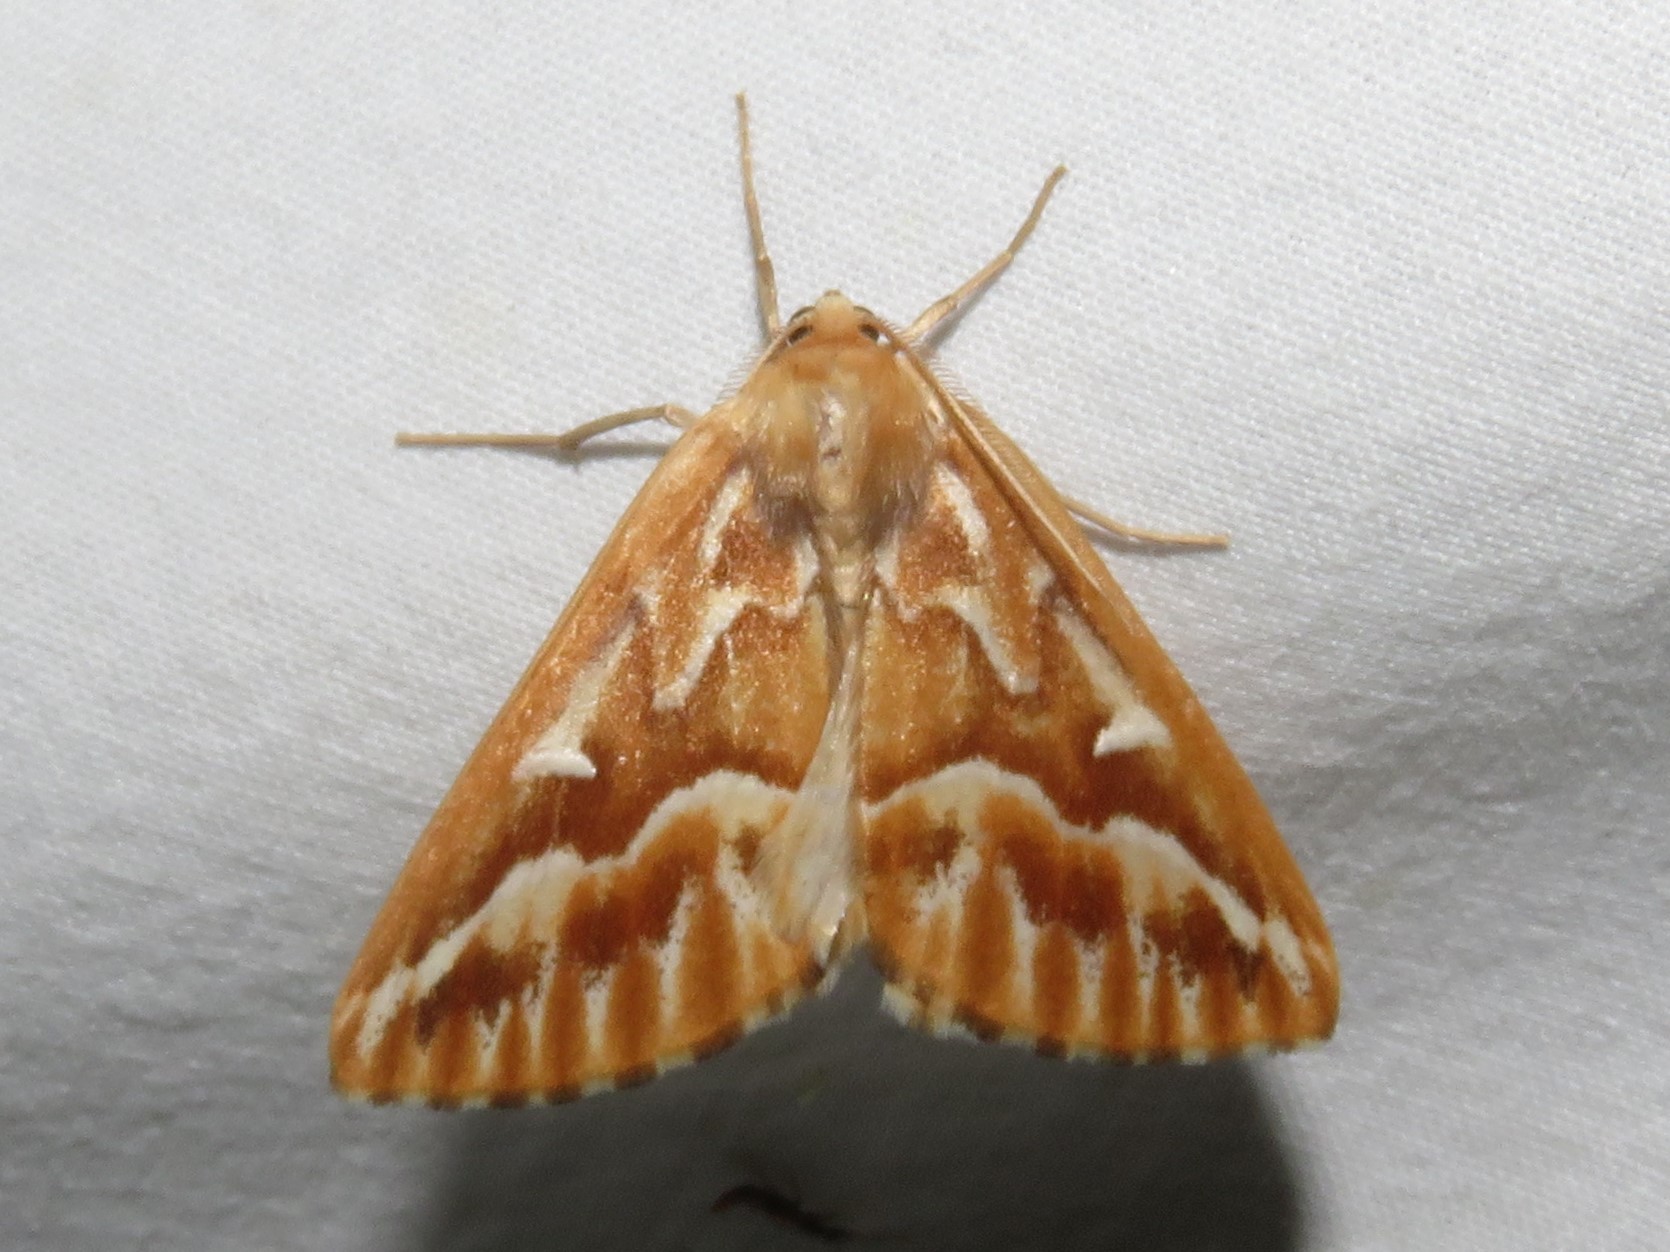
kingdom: Animalia
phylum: Arthropoda
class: Insecta
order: Lepidoptera
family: Geometridae
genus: Caripeta
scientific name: Caripeta piniata
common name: Northern pine looper moth
